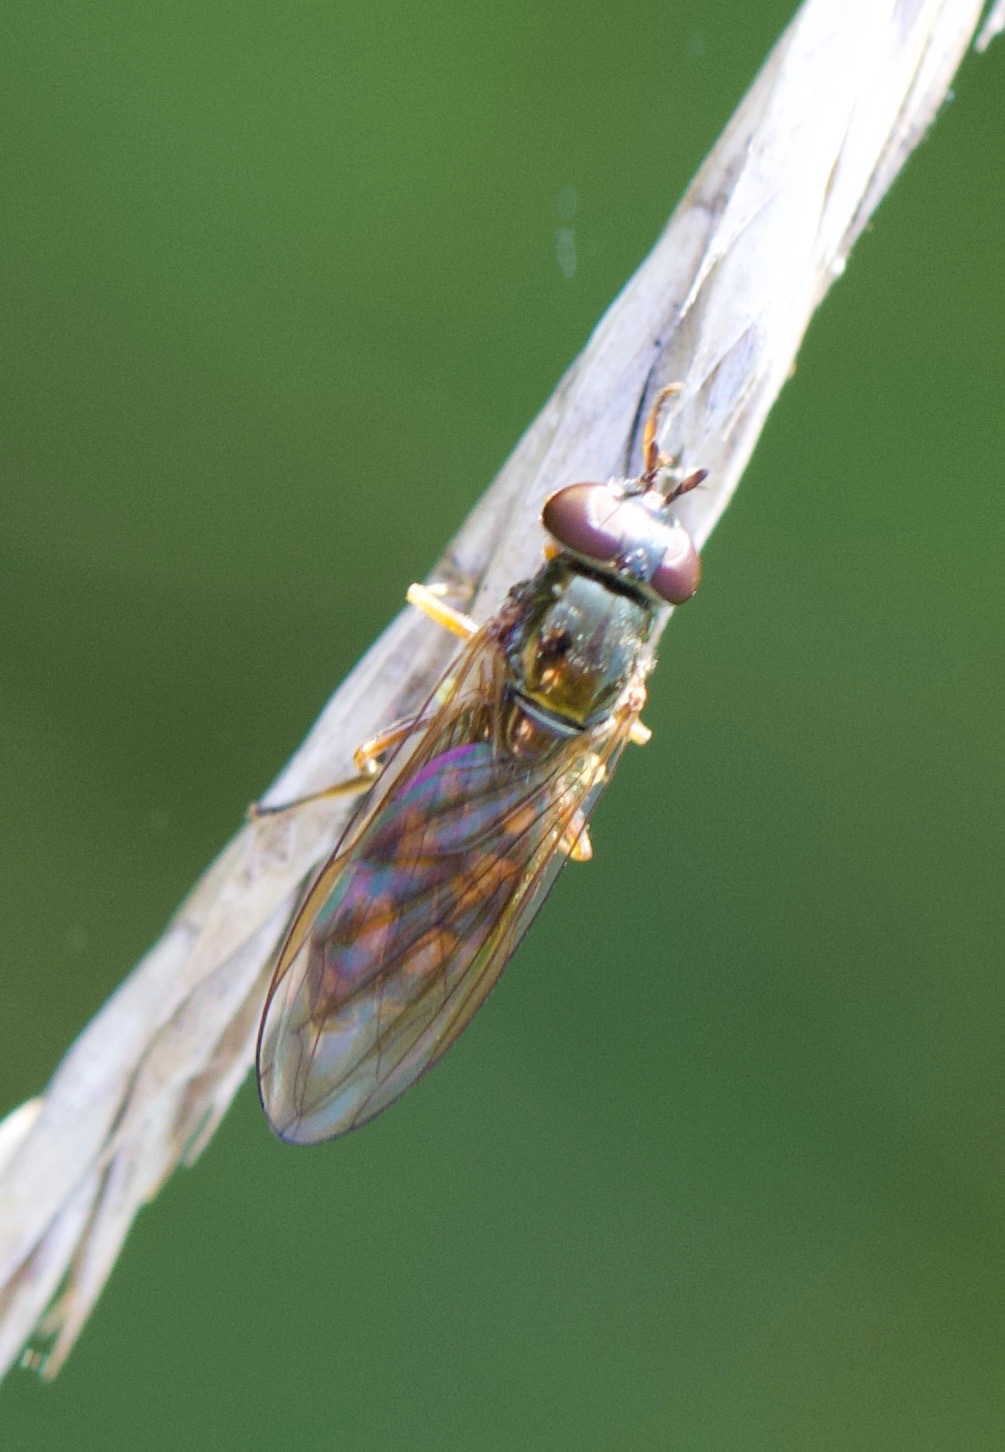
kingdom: Animalia
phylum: Arthropoda
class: Insecta
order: Diptera
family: Syrphidae
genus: Melanostoma
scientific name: Melanostoma
